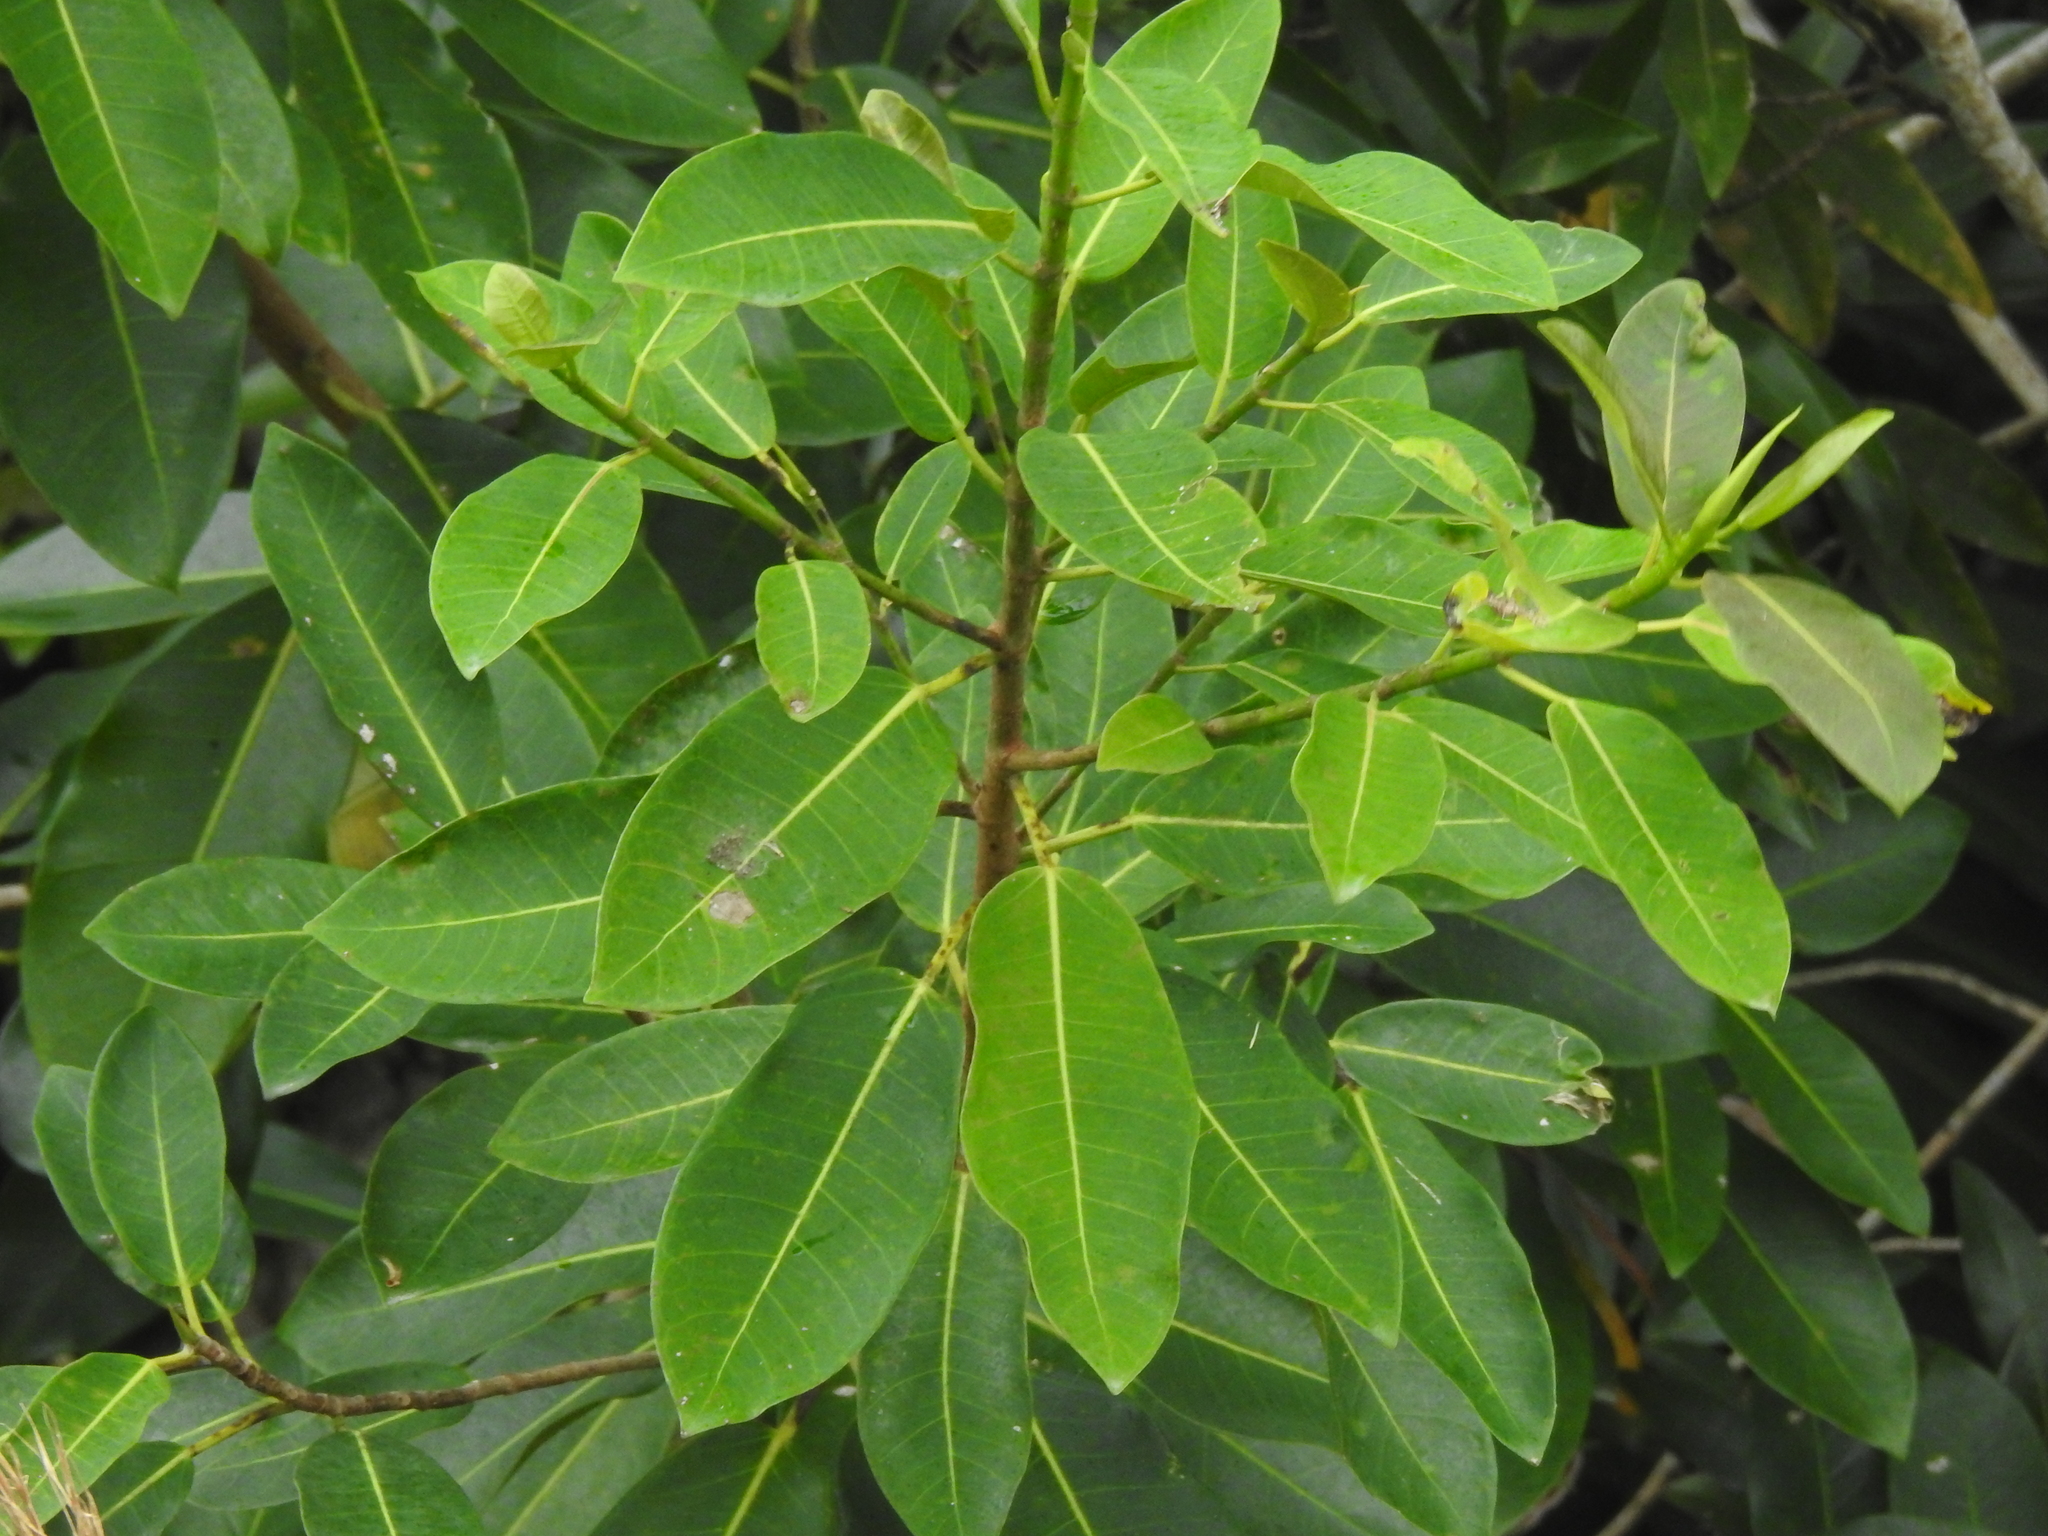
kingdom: Plantae
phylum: Tracheophyta
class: Magnoliopsida
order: Rosales
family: Moraceae
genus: Ficus
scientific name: Ficus aurea
